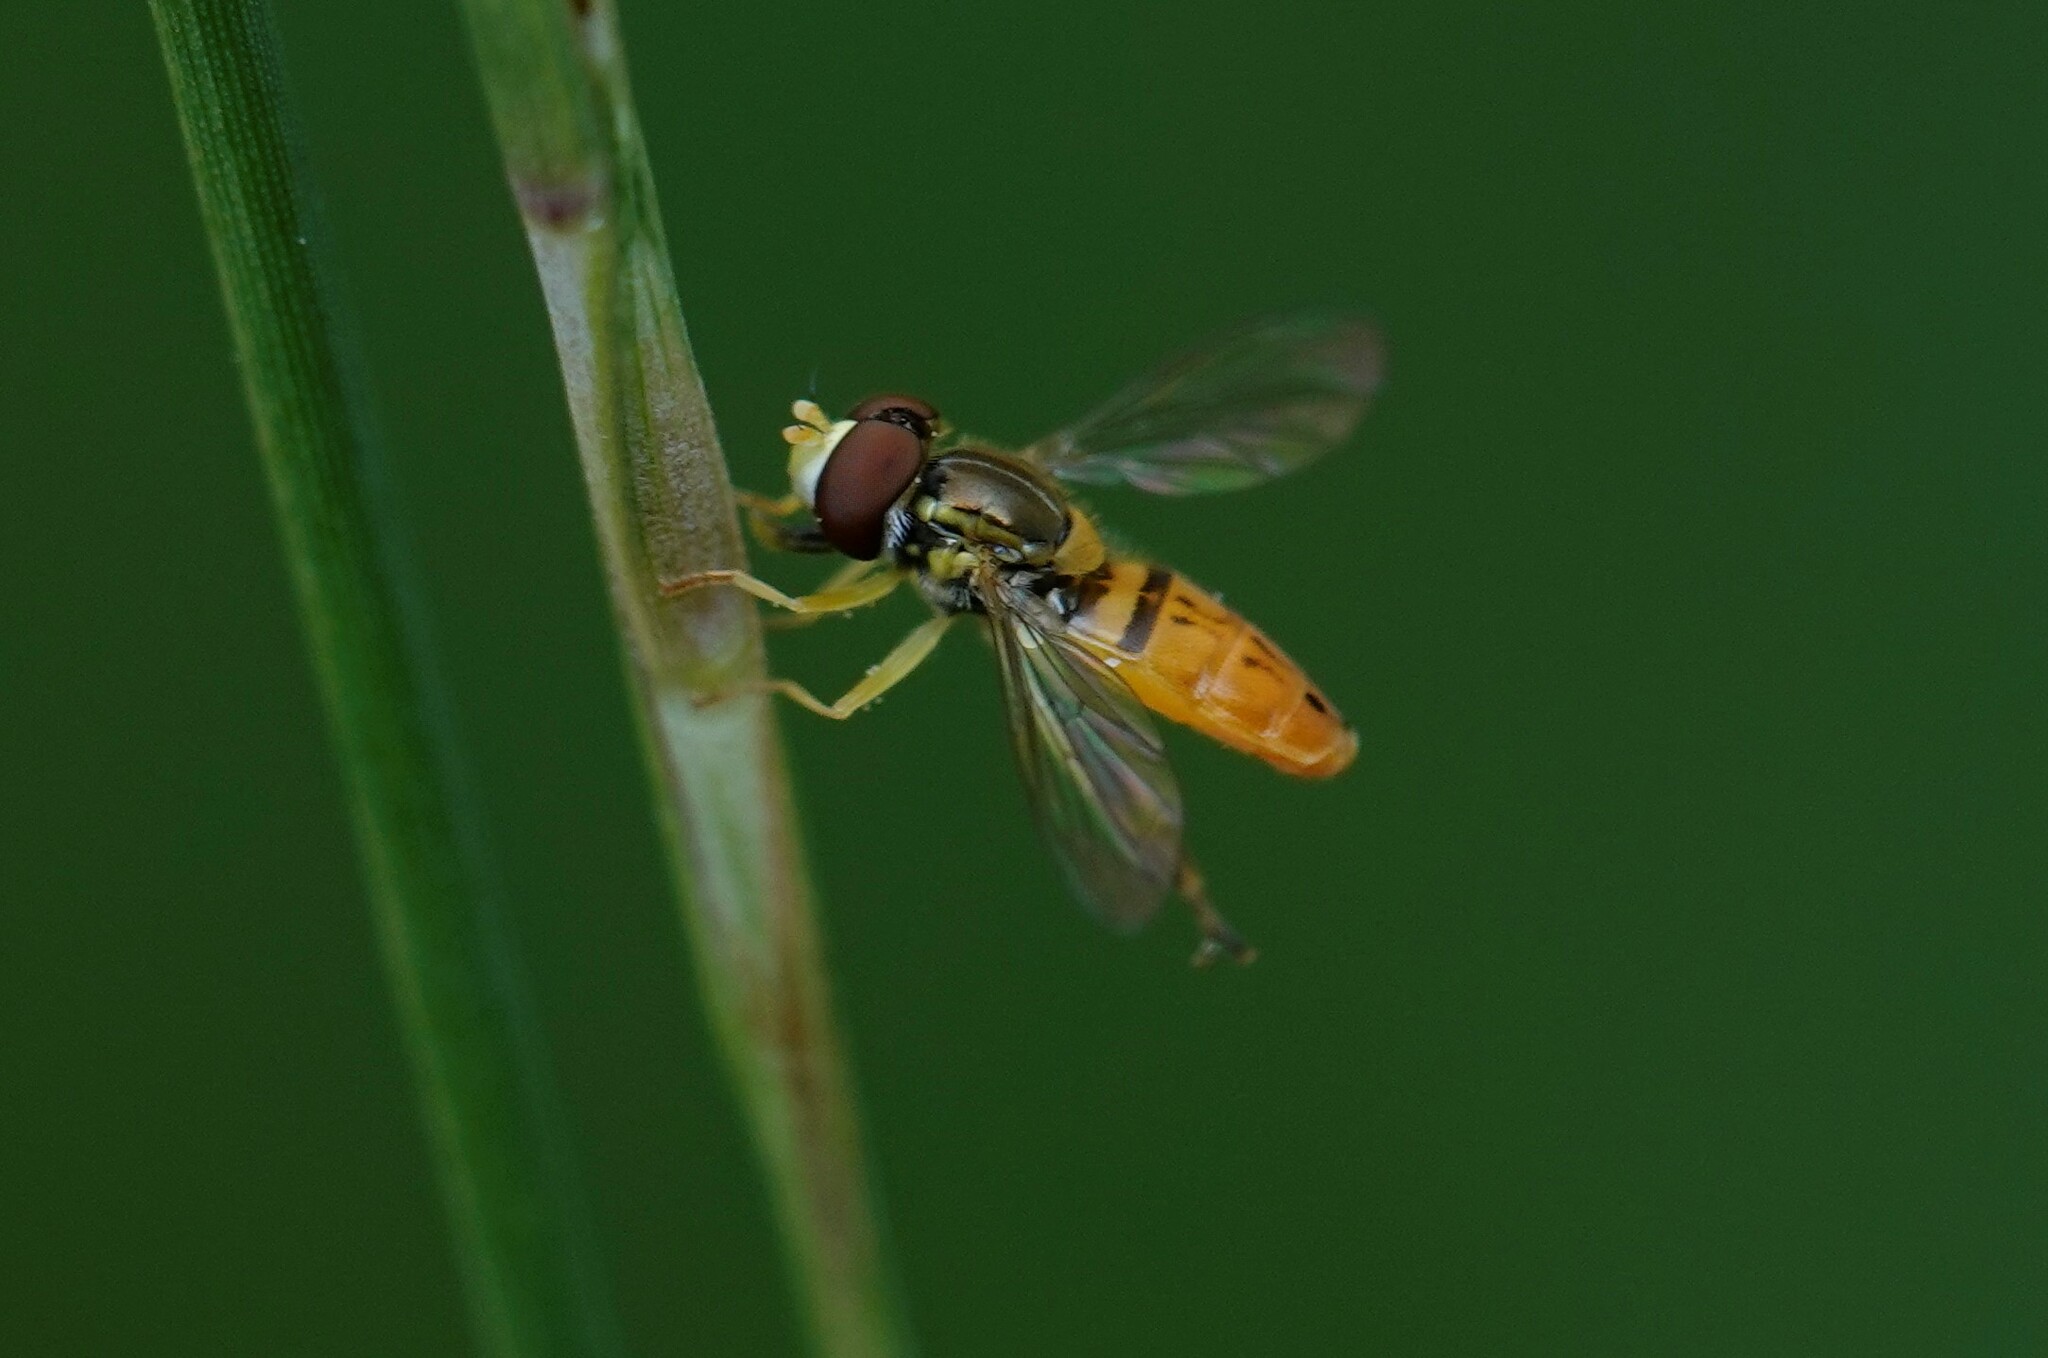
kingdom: Animalia
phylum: Arthropoda
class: Insecta
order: Diptera
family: Syrphidae
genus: Toxomerus
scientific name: Toxomerus marginatus
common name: Syrphid fly
